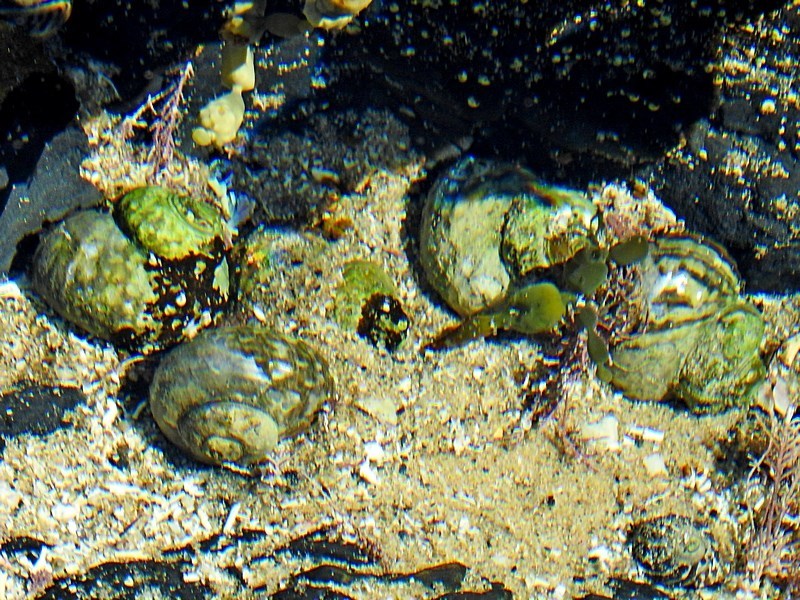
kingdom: Animalia
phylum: Mollusca
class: Gastropoda
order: Trochida
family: Turbinidae
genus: Lunella
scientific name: Lunella torquata
